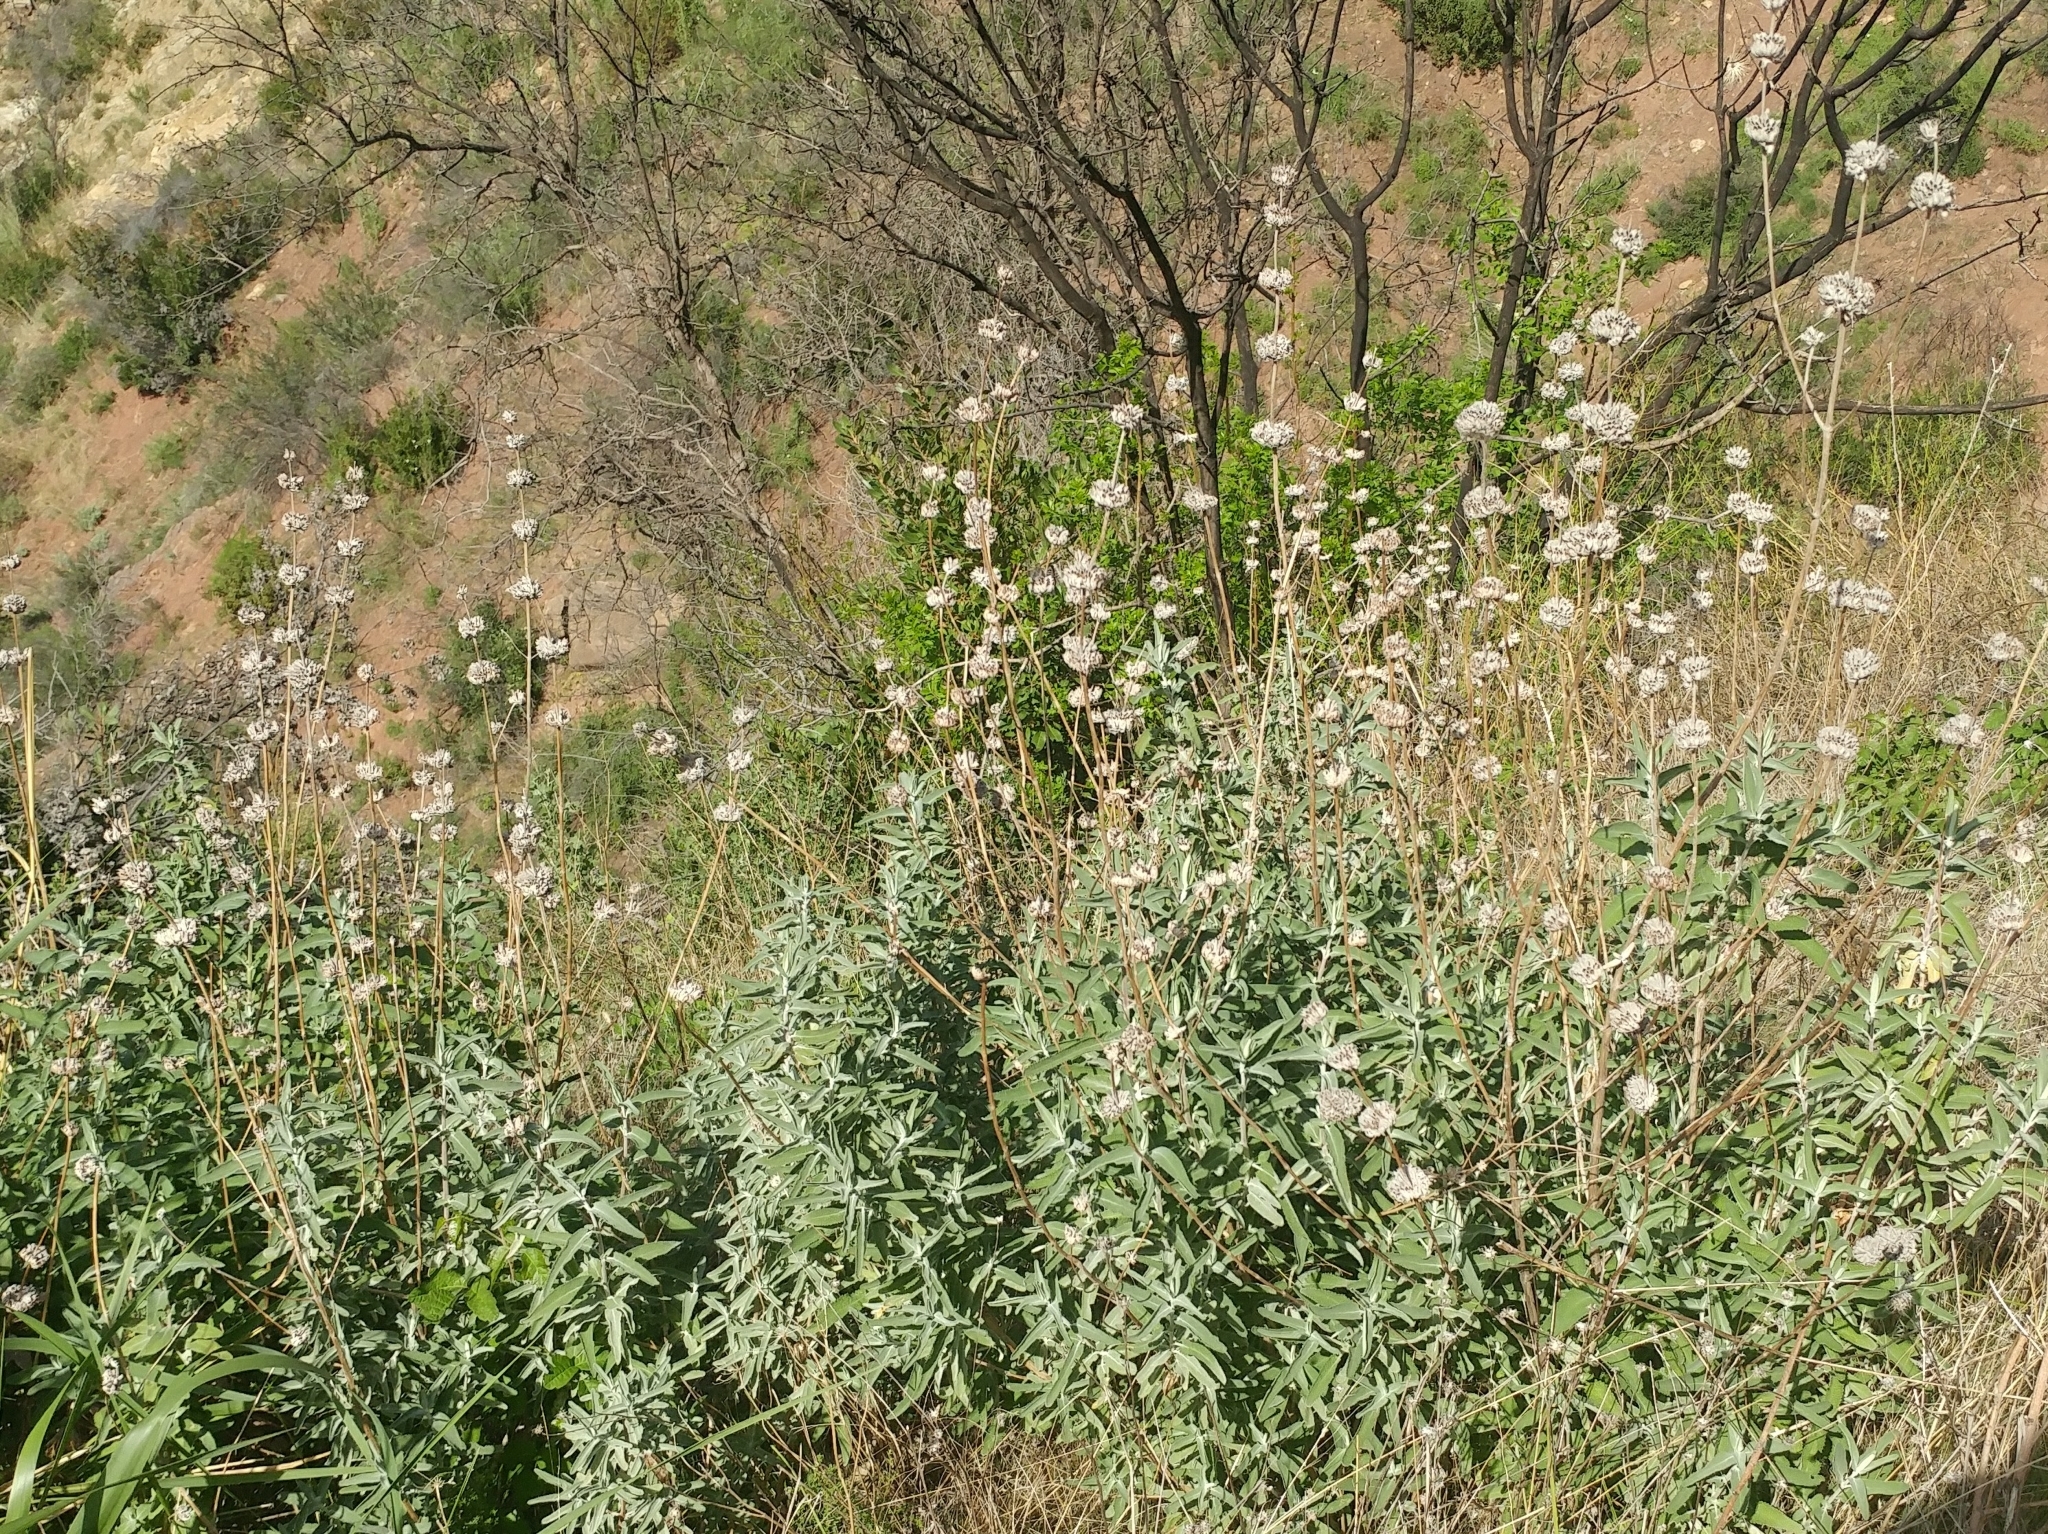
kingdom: Plantae
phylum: Tracheophyta
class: Magnoliopsida
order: Lamiales
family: Lamiaceae
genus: Salvia
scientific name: Salvia leucophylla
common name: Purple sage
